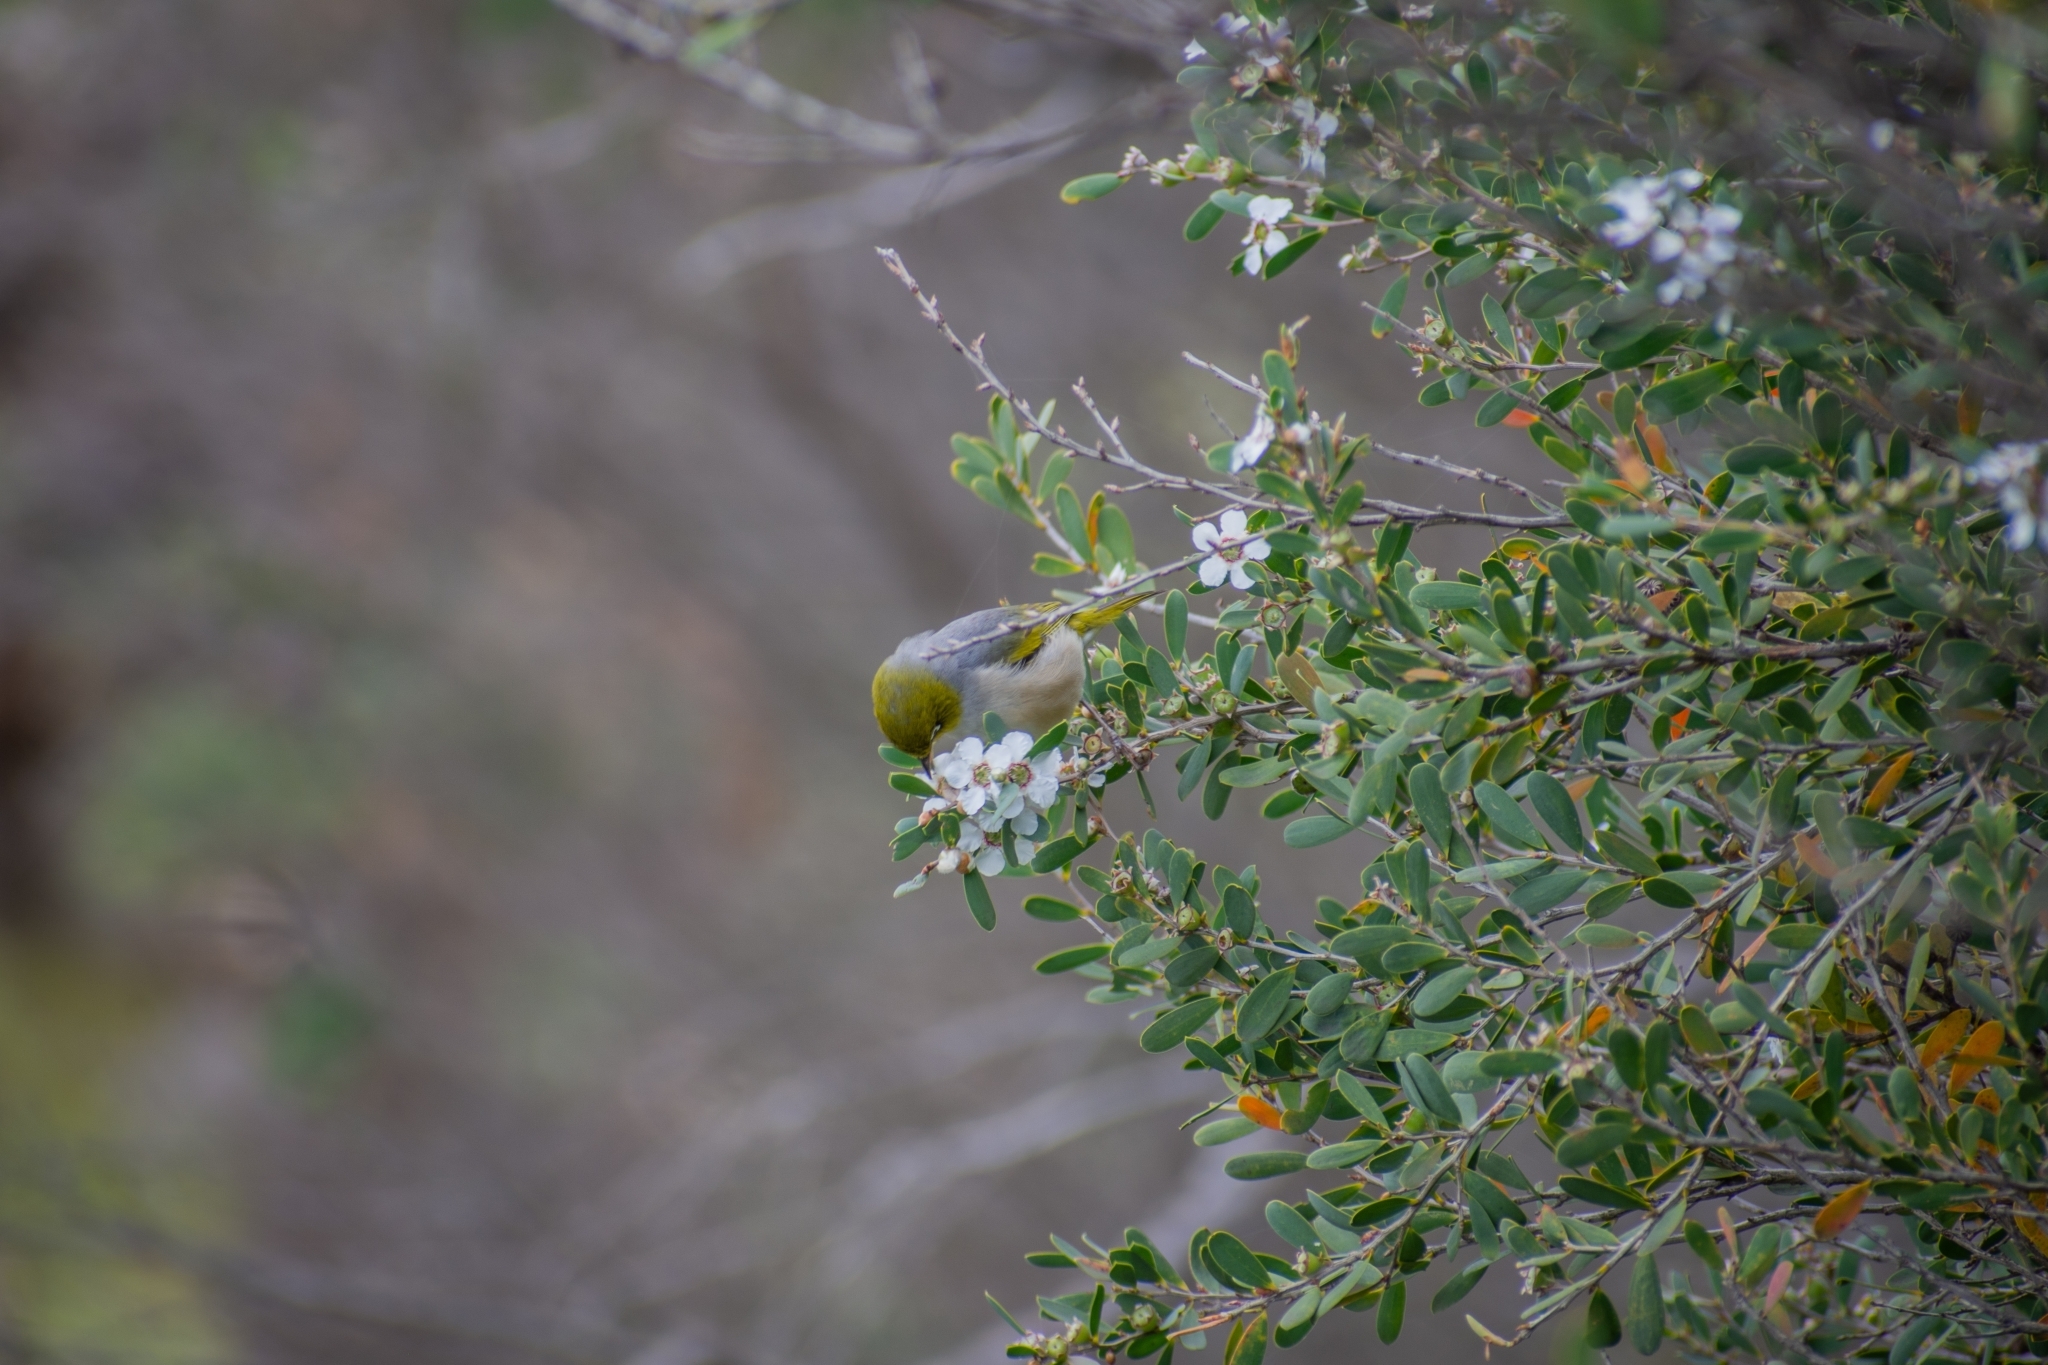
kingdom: Animalia
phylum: Chordata
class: Aves
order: Passeriformes
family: Zosteropidae
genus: Zosterops
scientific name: Zosterops lateralis
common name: Silvereye
